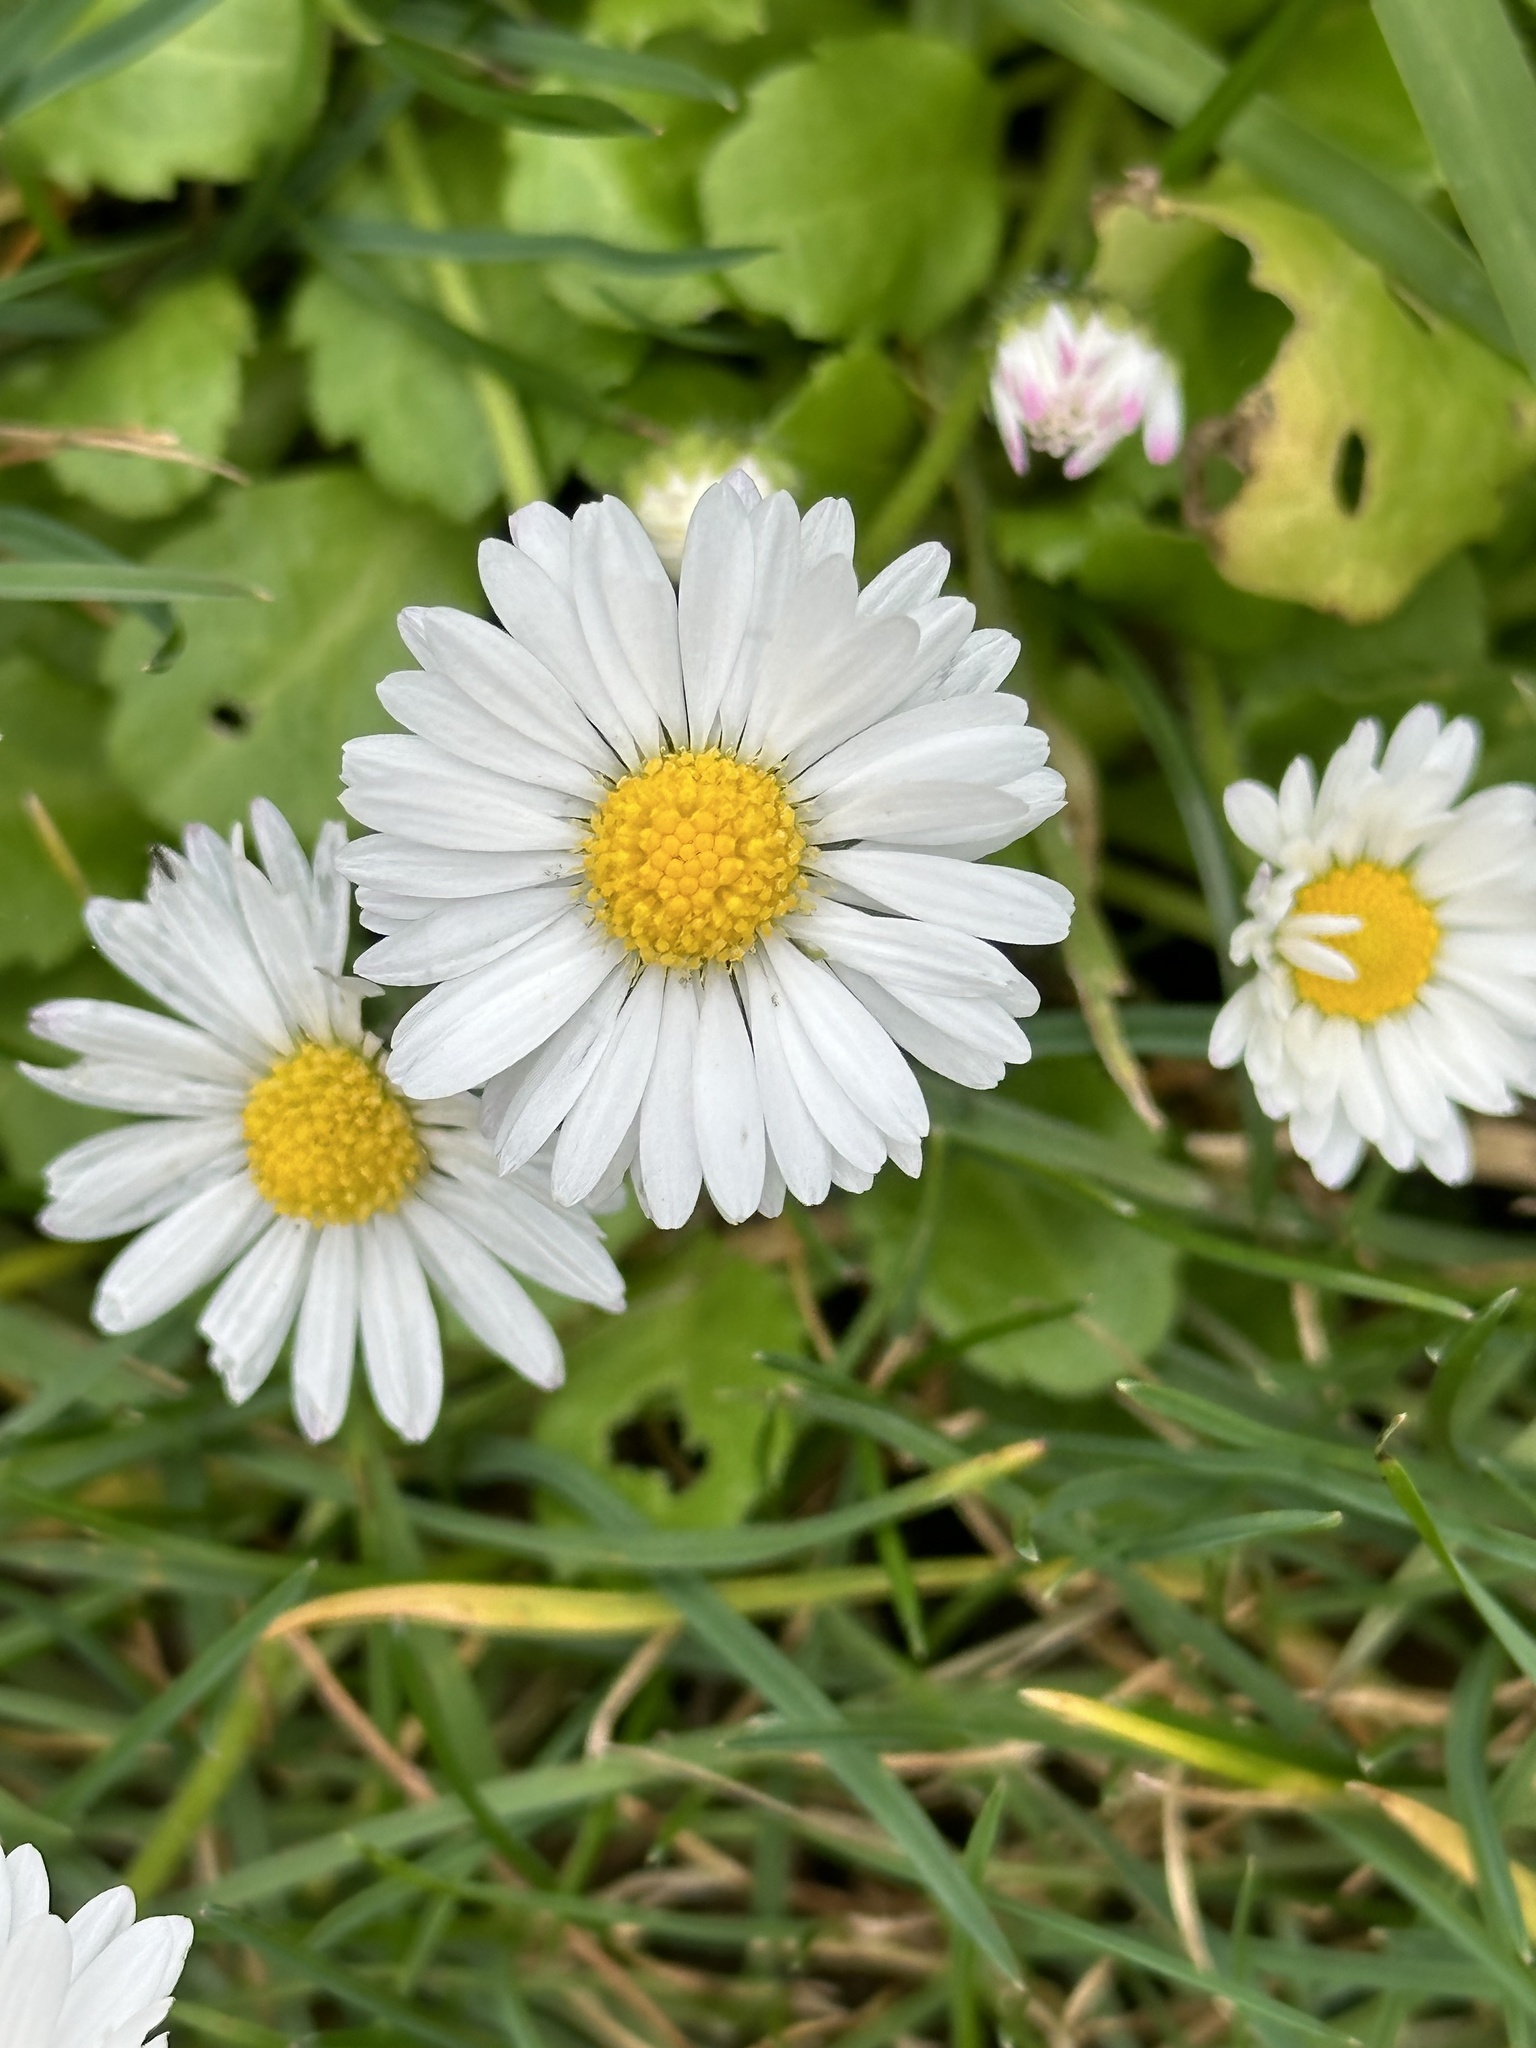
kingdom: Plantae
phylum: Tracheophyta
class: Magnoliopsida
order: Asterales
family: Asteraceae
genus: Bellis
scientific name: Bellis perennis
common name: Lawndaisy
